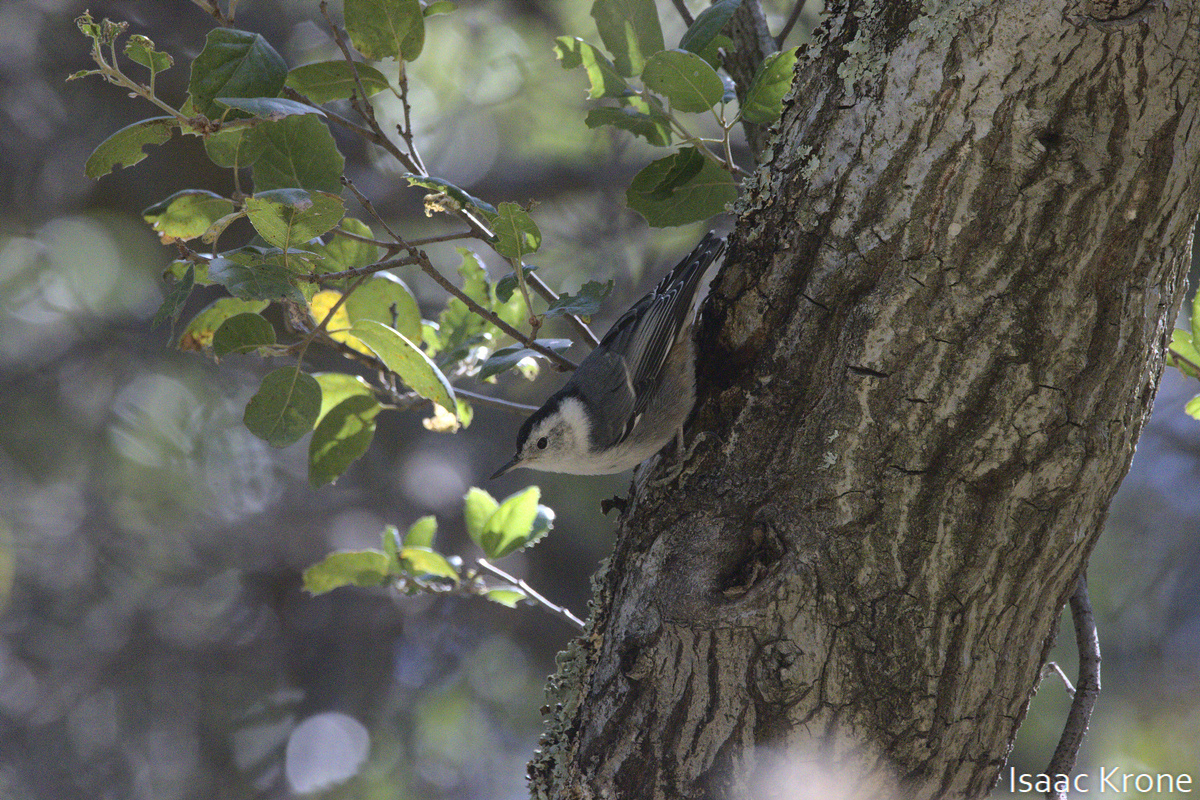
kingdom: Animalia
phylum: Chordata
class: Aves
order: Passeriformes
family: Sittidae
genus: Sitta
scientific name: Sitta carolinensis
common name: White-breasted nuthatch
